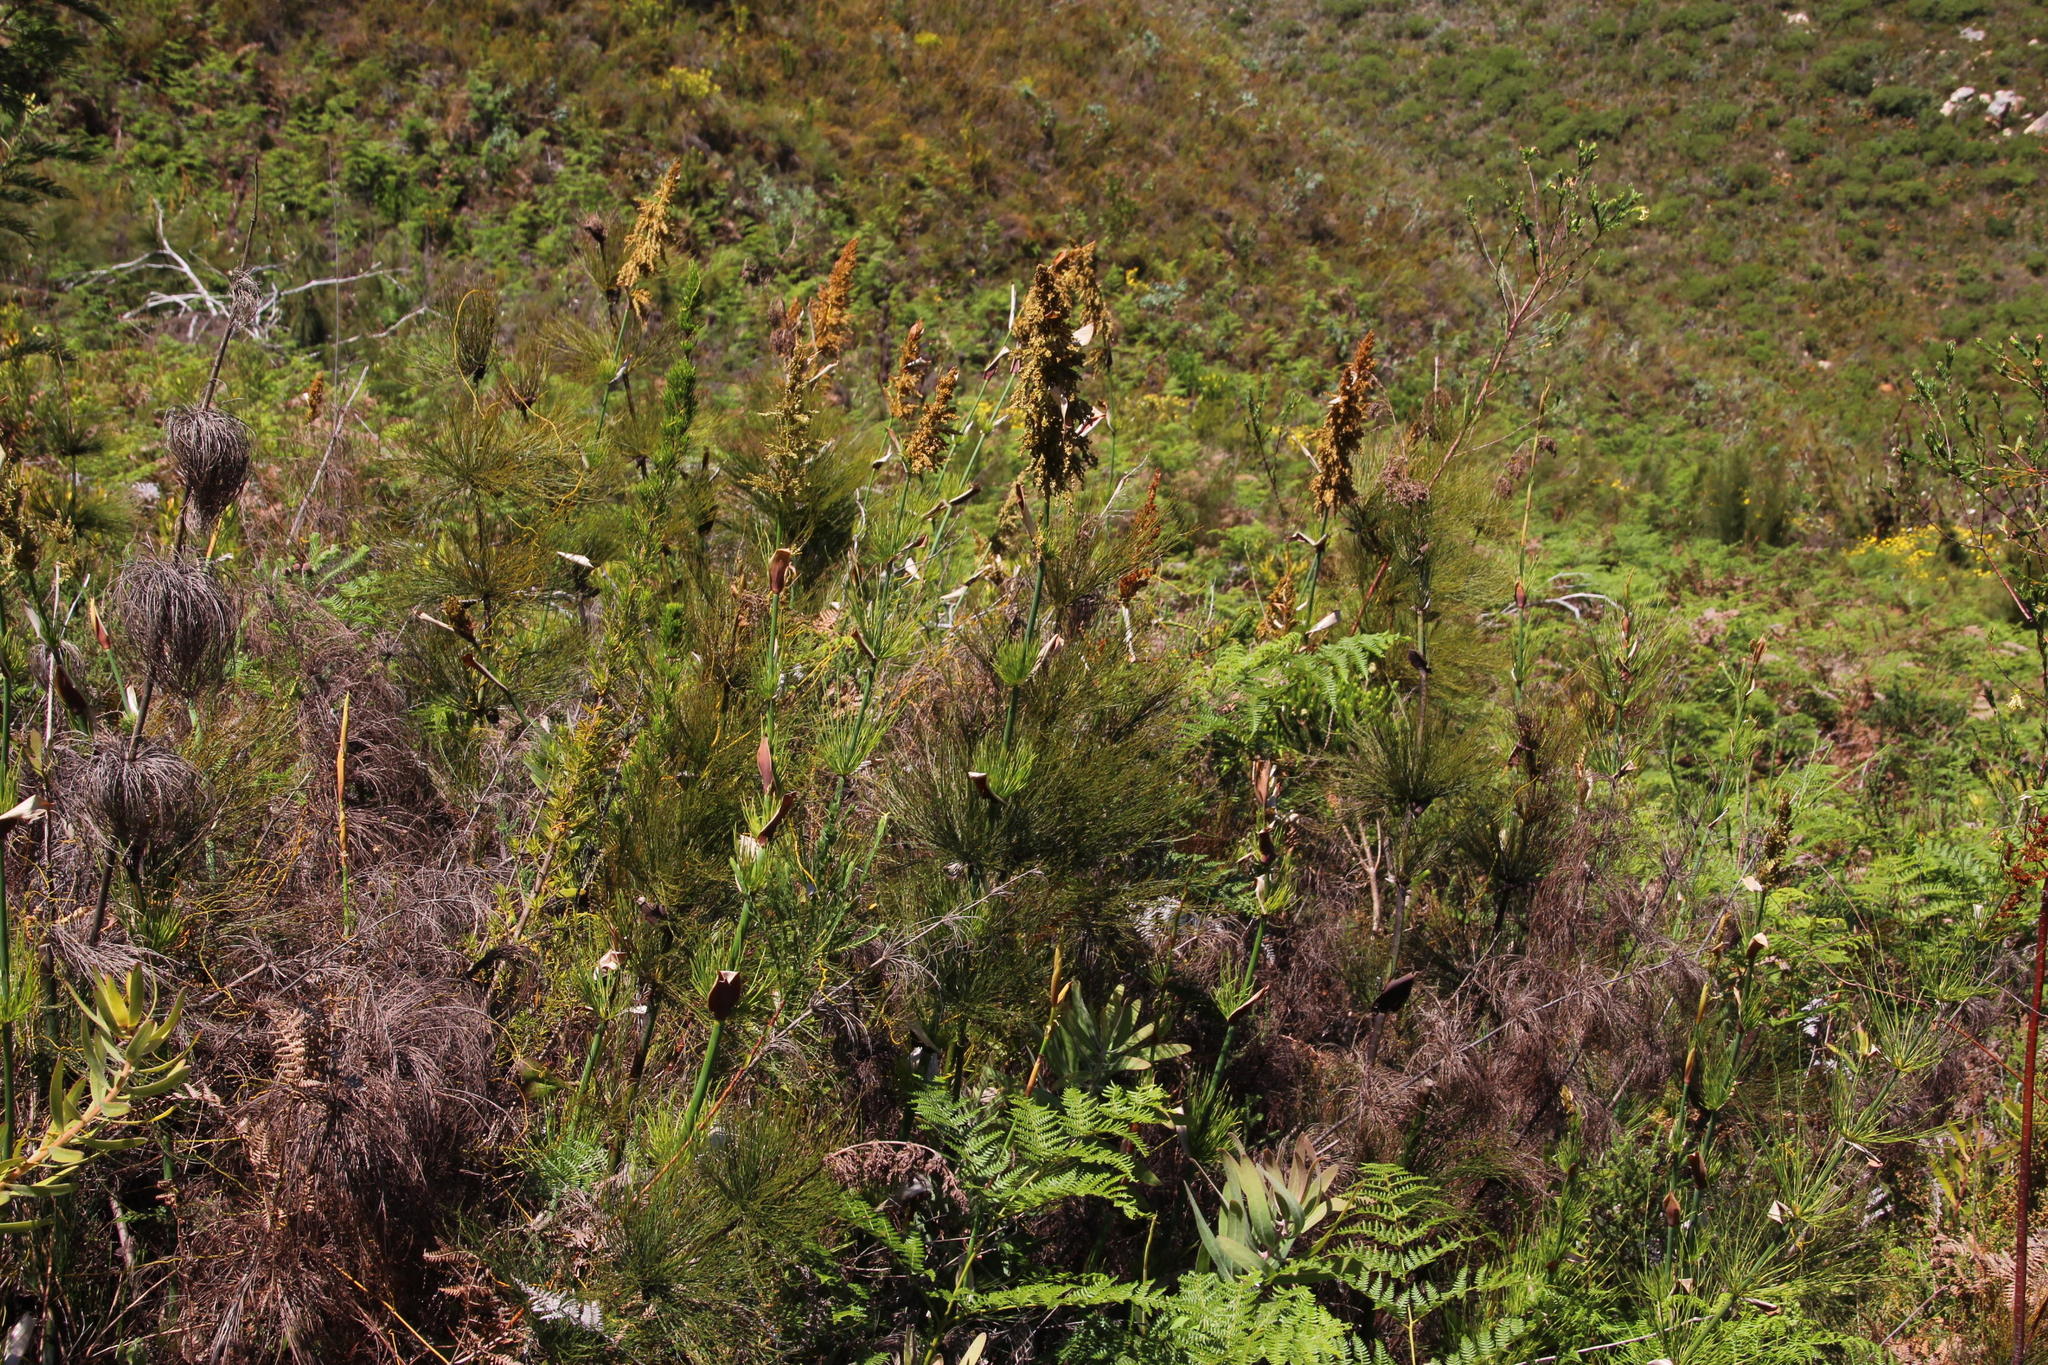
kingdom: Plantae
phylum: Tracheophyta
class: Liliopsida
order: Poales
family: Restionaceae
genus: Elegia
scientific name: Elegia capensis
